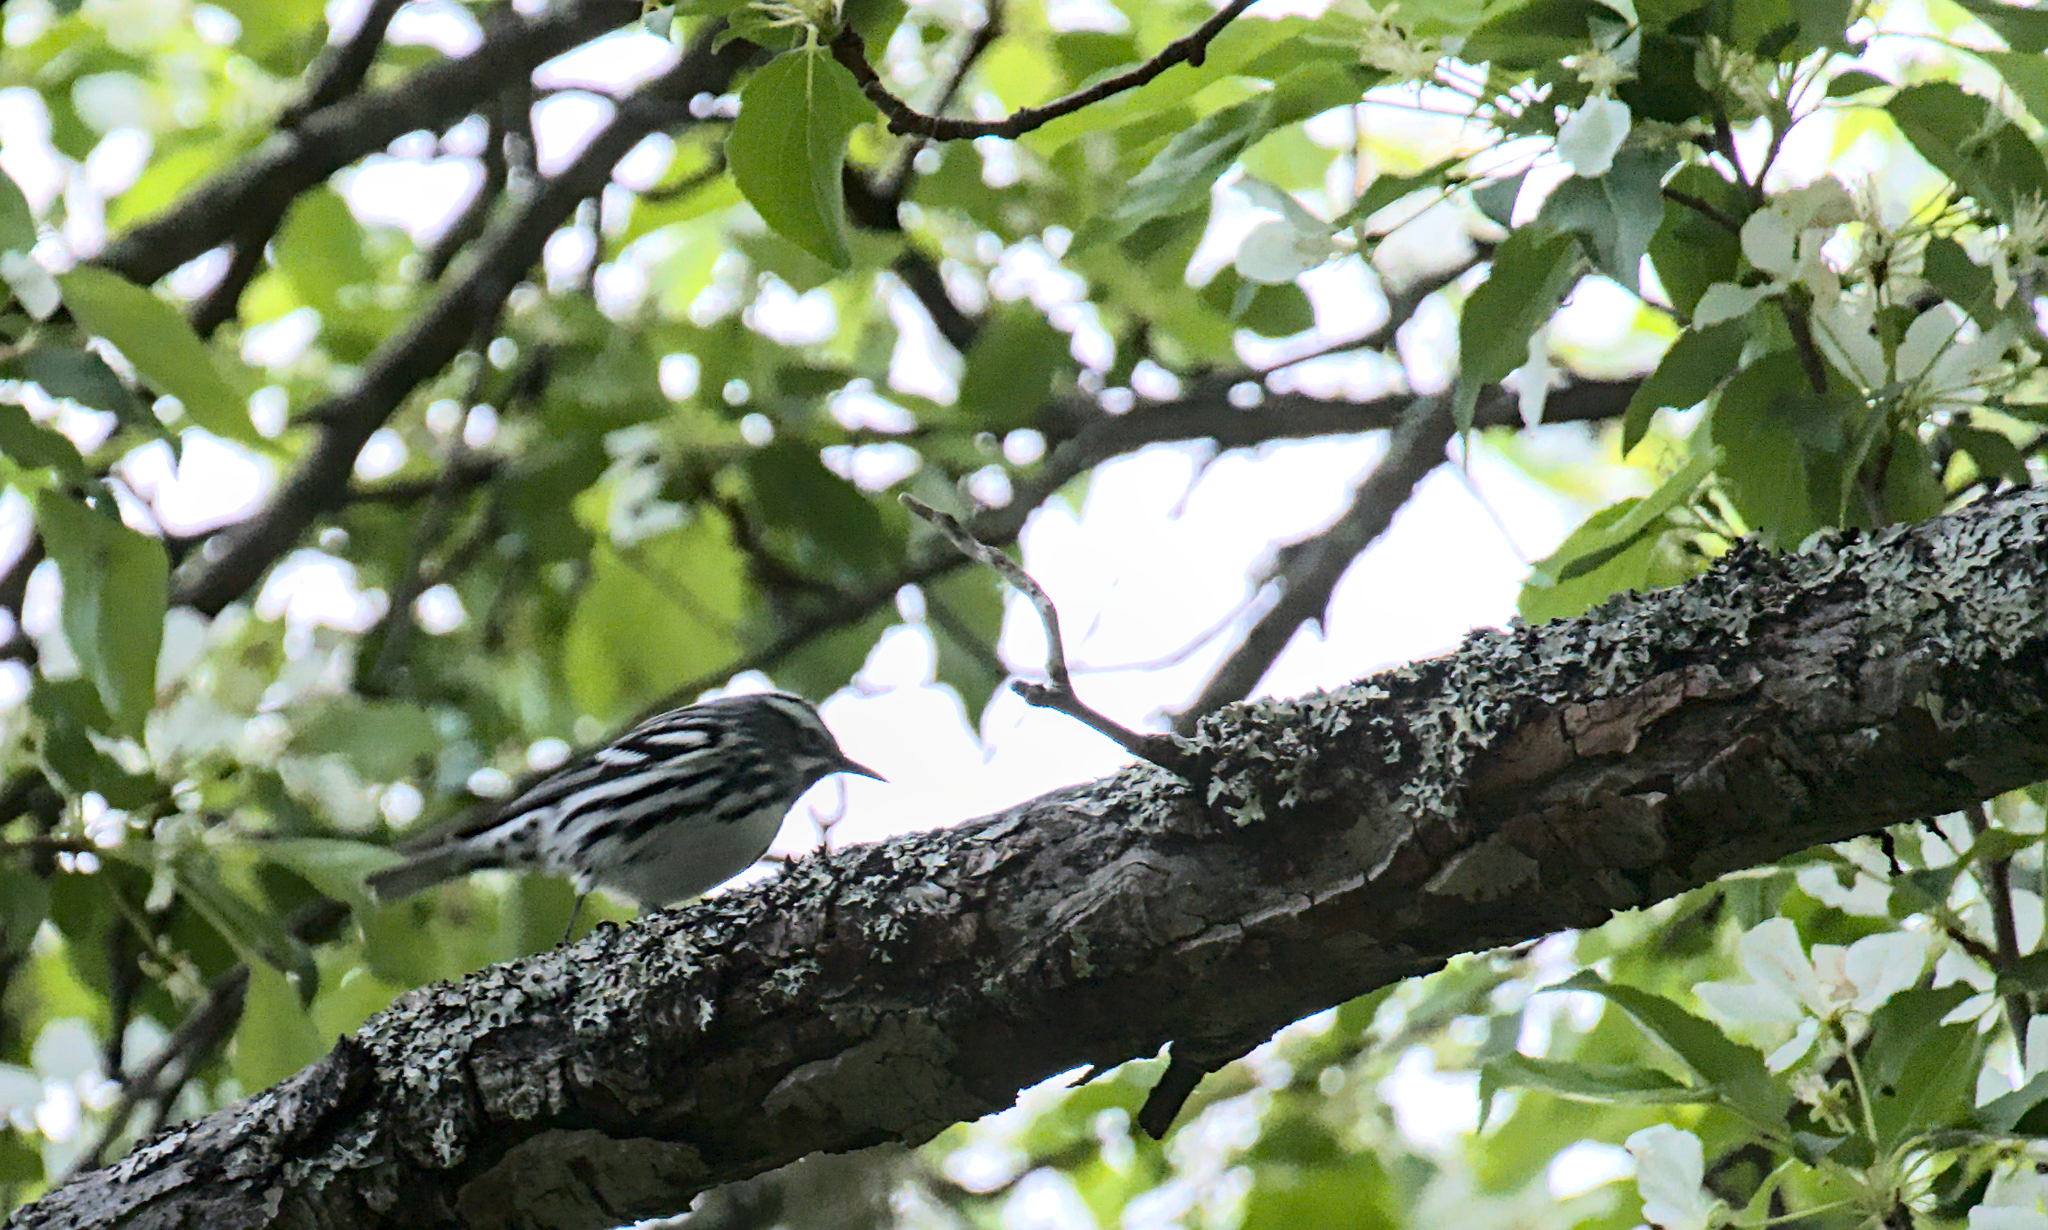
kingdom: Animalia
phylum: Chordata
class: Aves
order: Passeriformes
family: Parulidae
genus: Mniotilta
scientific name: Mniotilta varia
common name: Black-and-white warbler
